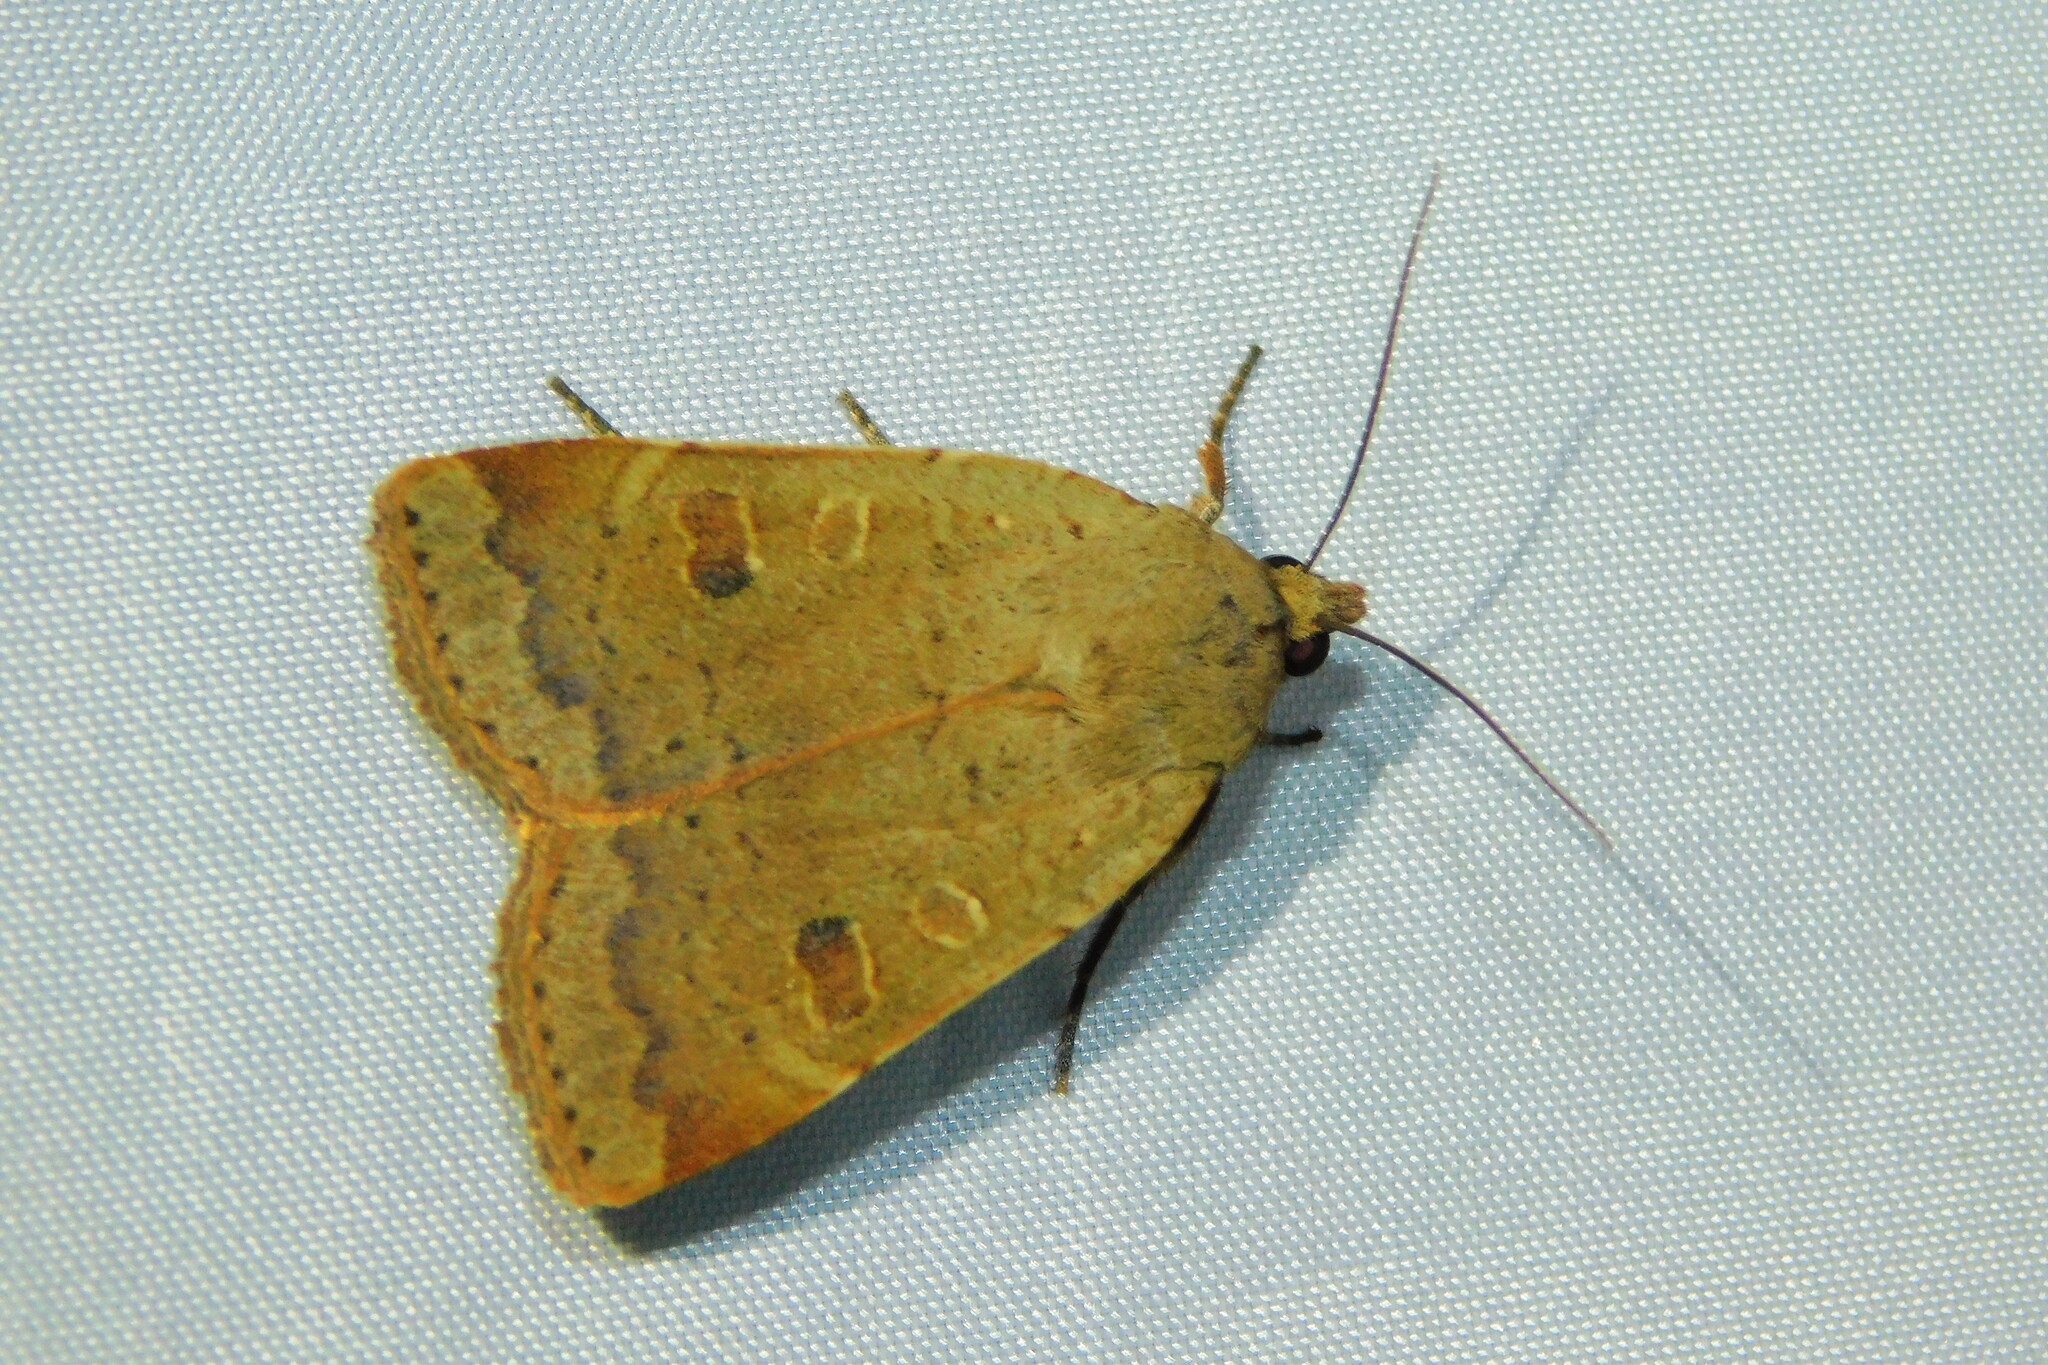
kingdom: Animalia
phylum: Arthropoda
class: Insecta
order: Lepidoptera
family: Noctuidae
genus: Noctua
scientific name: Noctua comes
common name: Lesser yellow underwing
